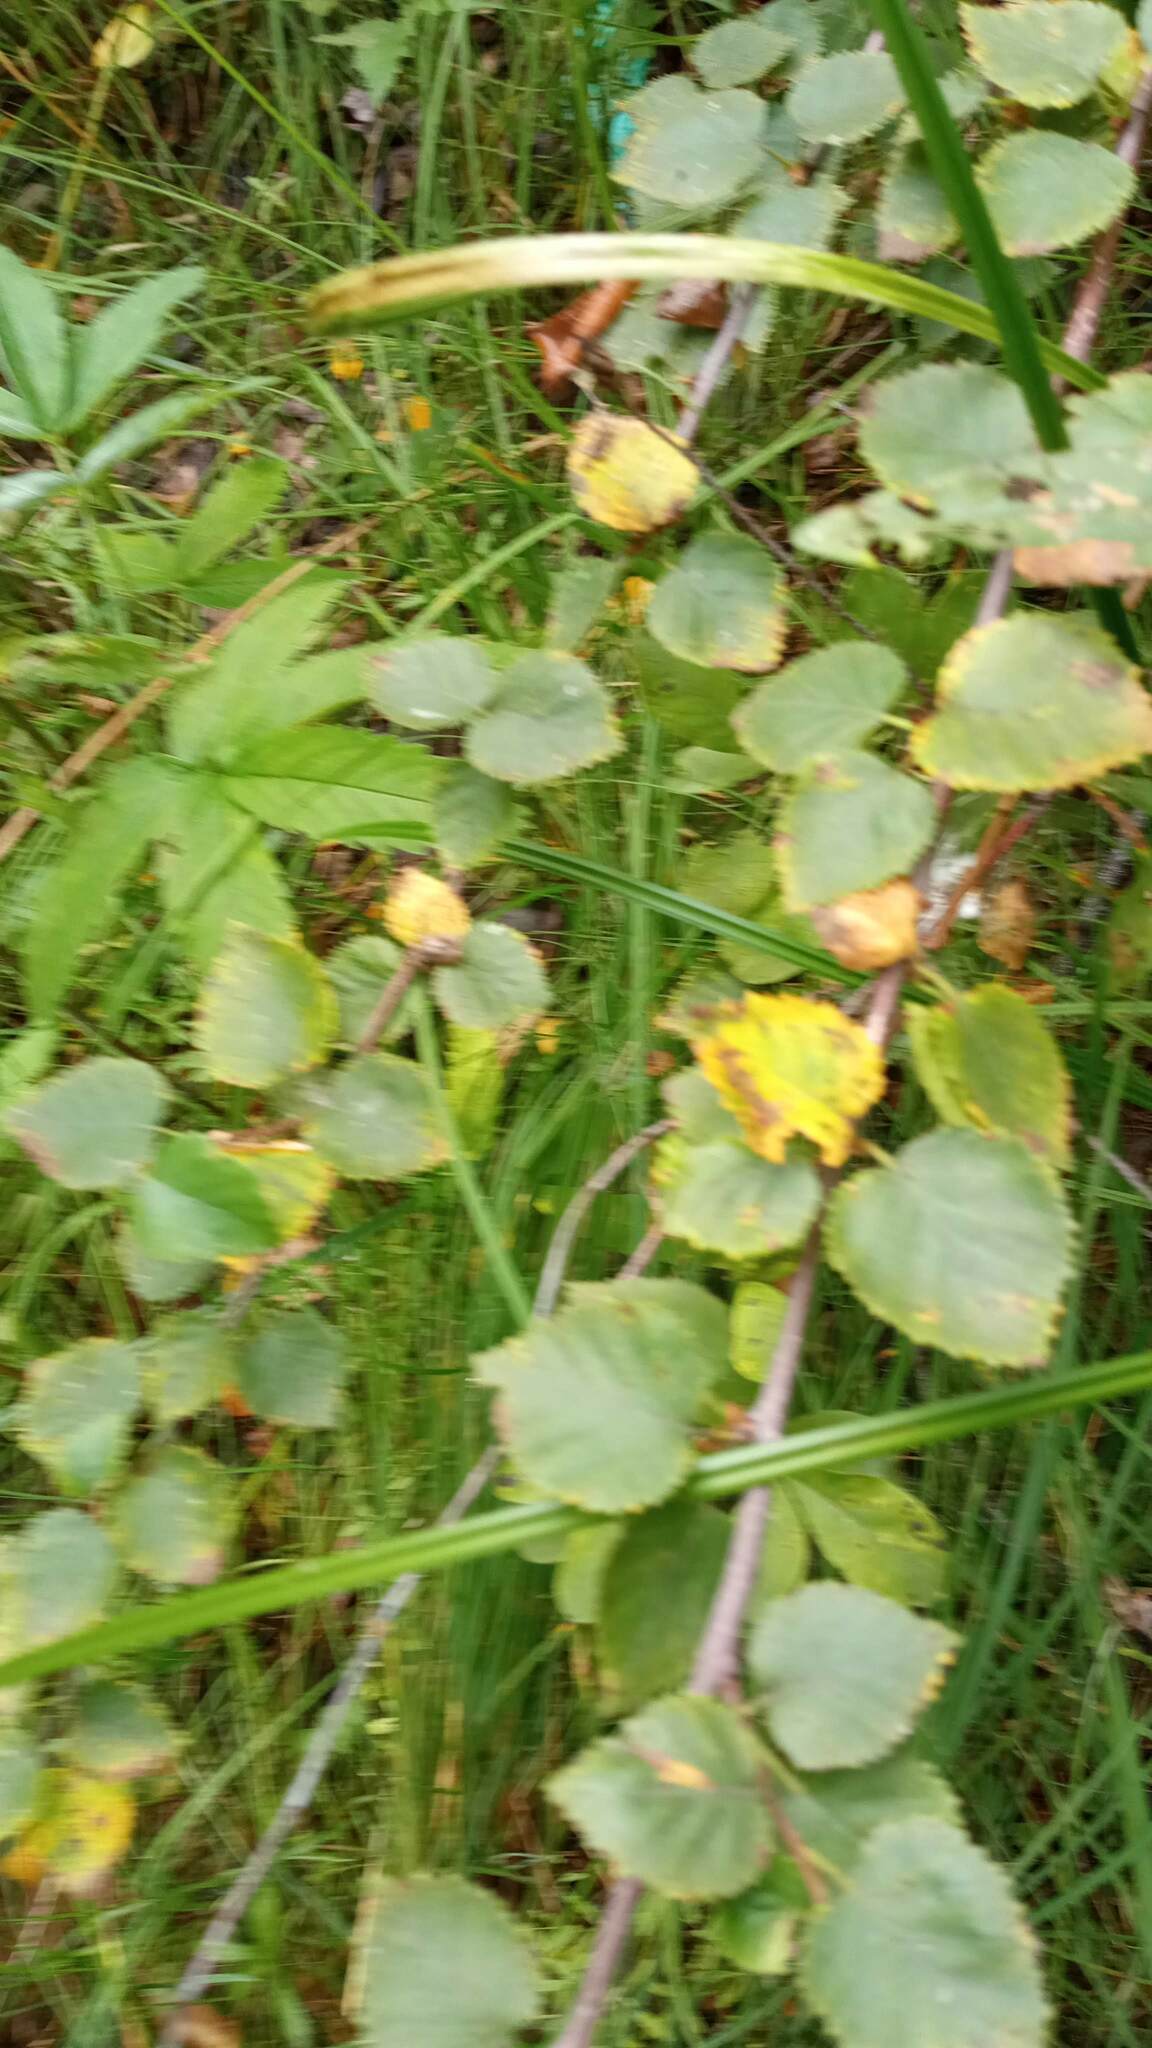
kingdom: Plantae
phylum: Tracheophyta
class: Magnoliopsida
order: Fagales
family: Betulaceae
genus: Betula
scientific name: Betula pubescens
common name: Downy birch
